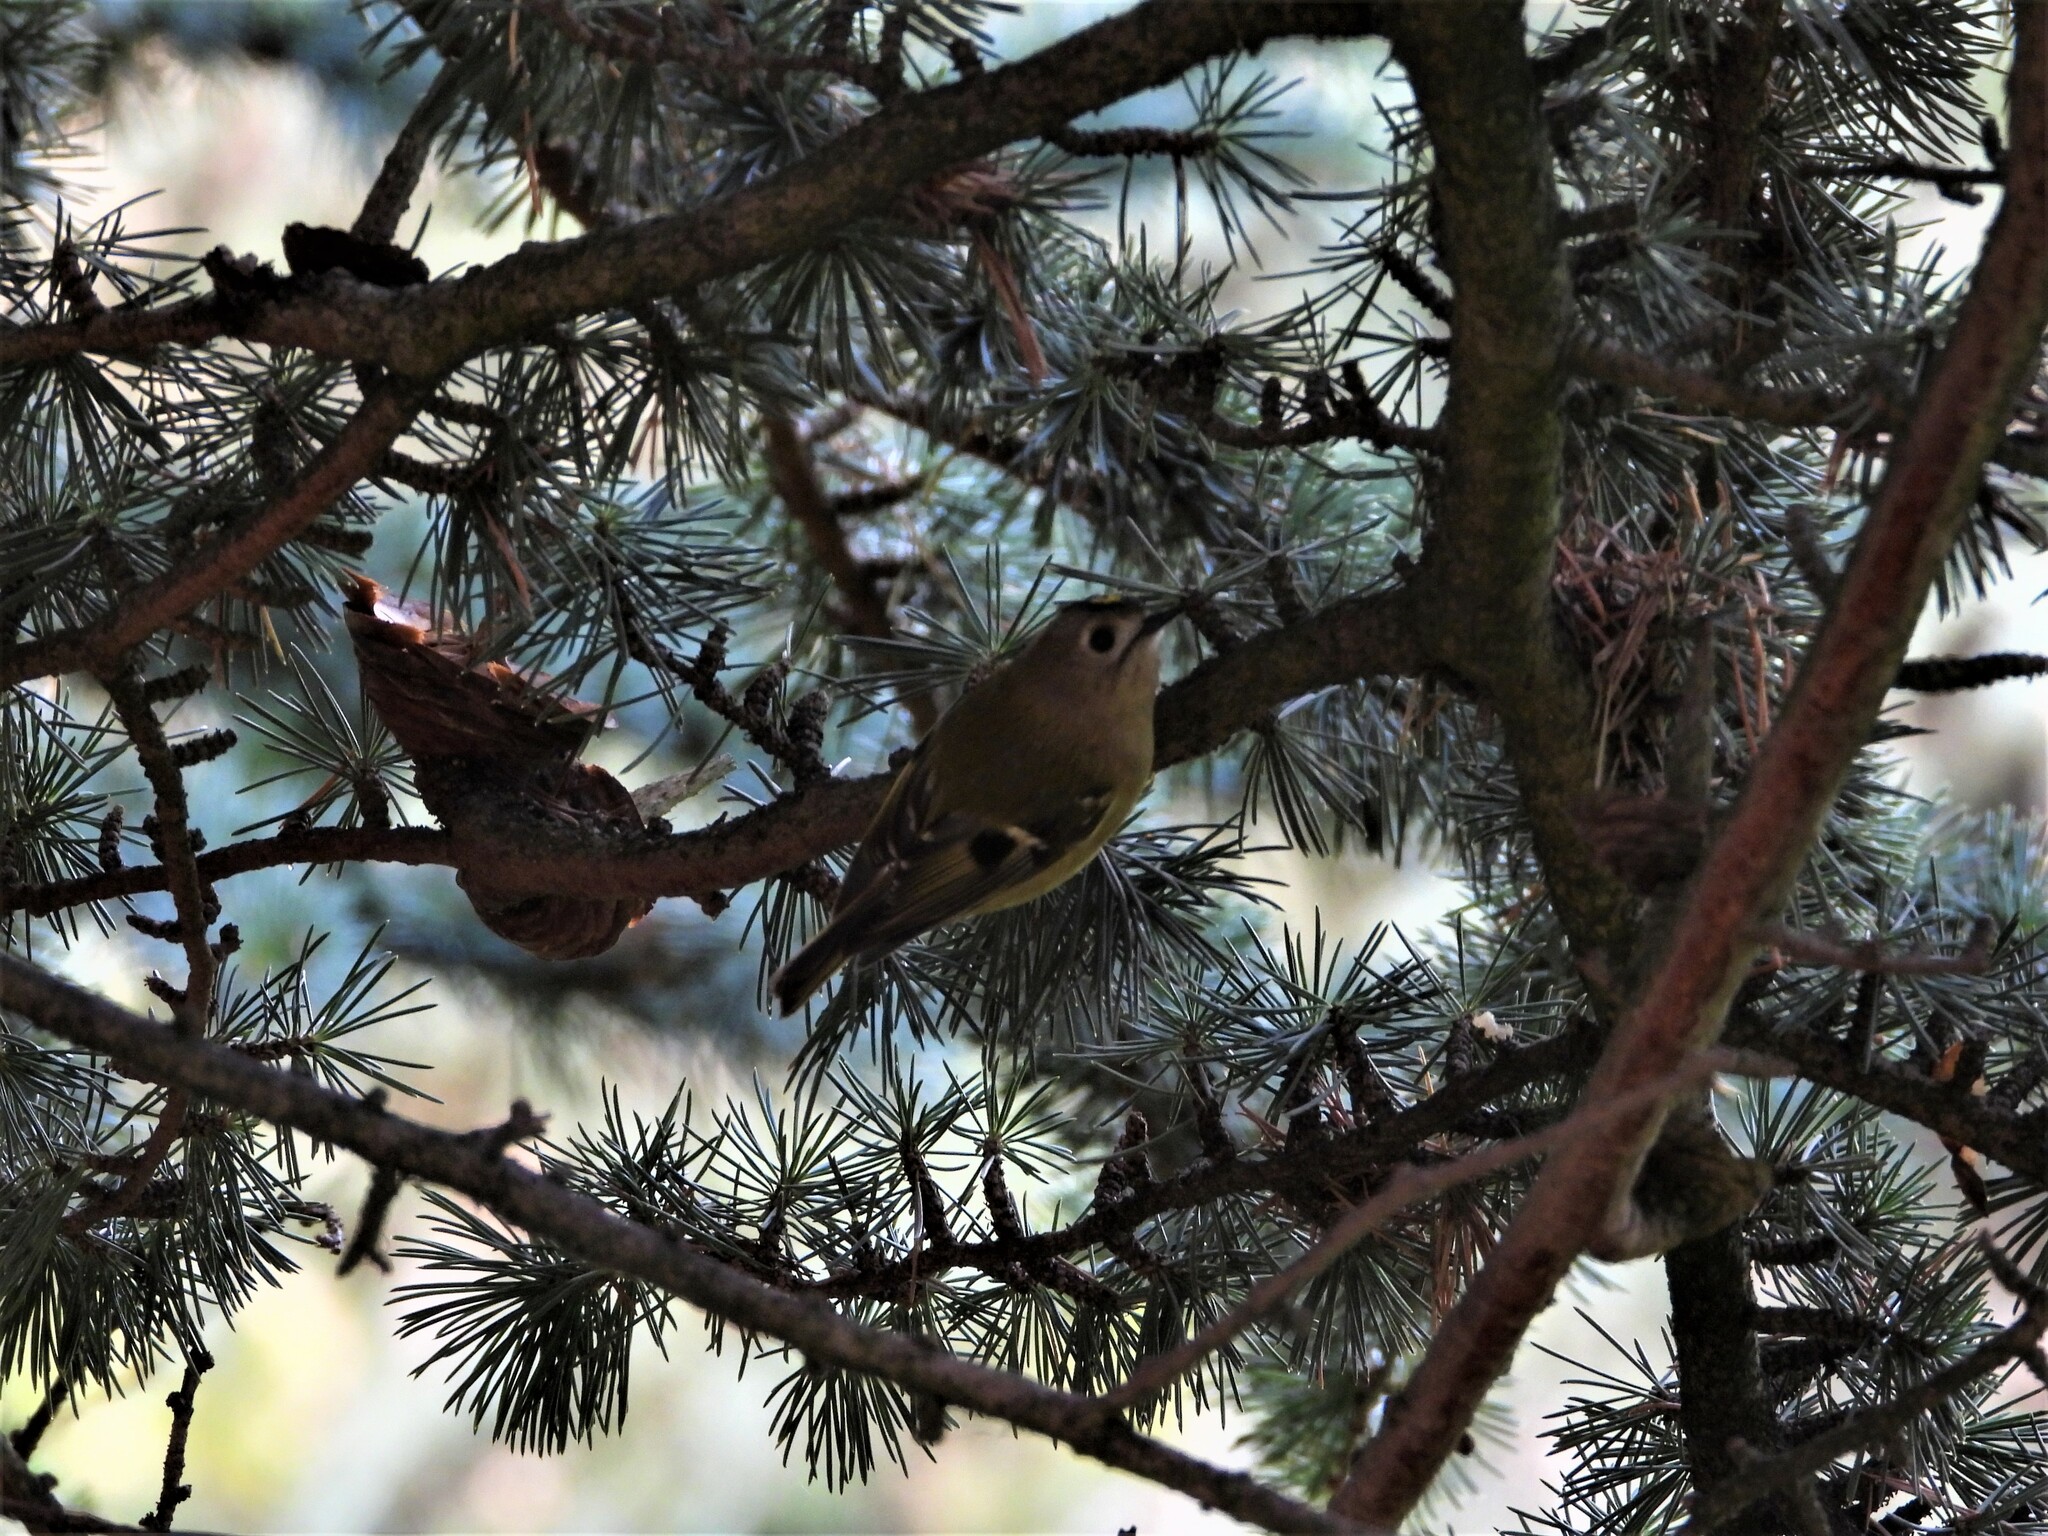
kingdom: Animalia
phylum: Chordata
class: Aves
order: Passeriformes
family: Regulidae
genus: Regulus
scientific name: Regulus regulus
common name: Goldcrest
